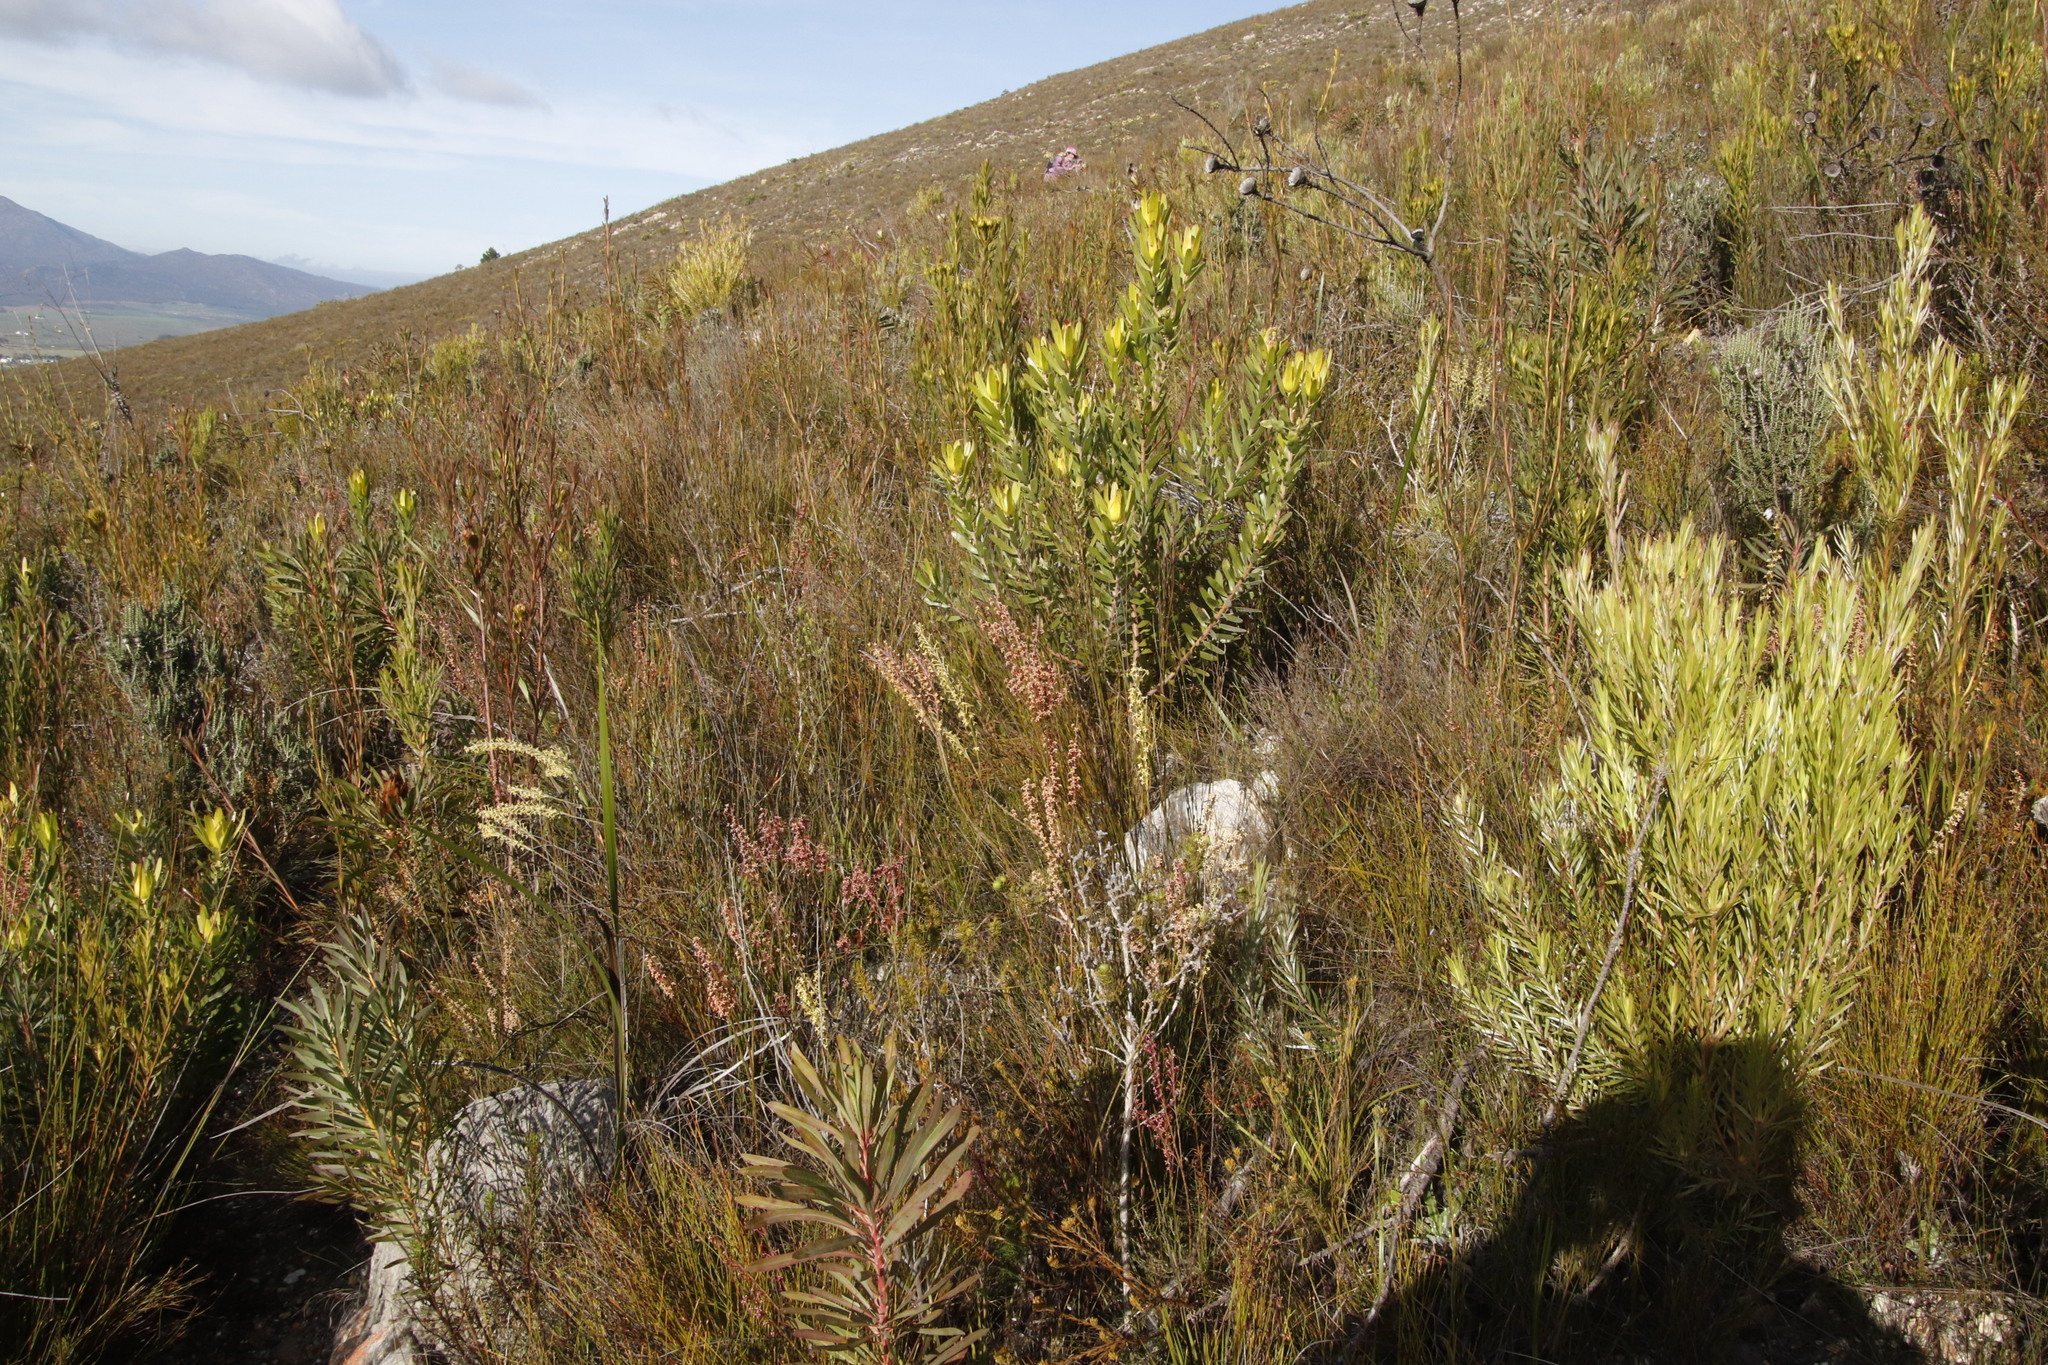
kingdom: Plantae
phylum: Tracheophyta
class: Magnoliopsida
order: Proteales
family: Proteaceae
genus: Leucadendron
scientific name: Leucadendron laureolum
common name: Golden sunshinebush
